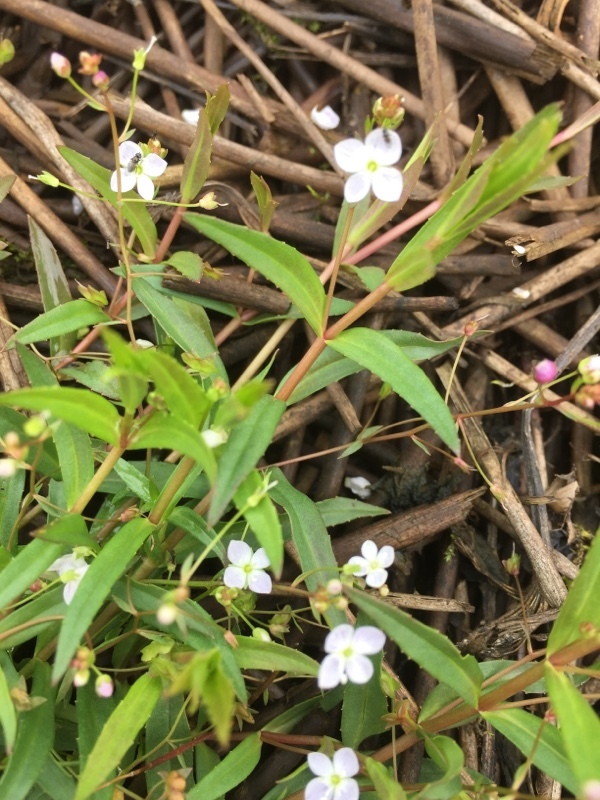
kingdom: Plantae
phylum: Tracheophyta
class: Magnoliopsida
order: Lamiales
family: Plantaginaceae
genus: Veronica
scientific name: Veronica scutellata
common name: Marsh speedwell
